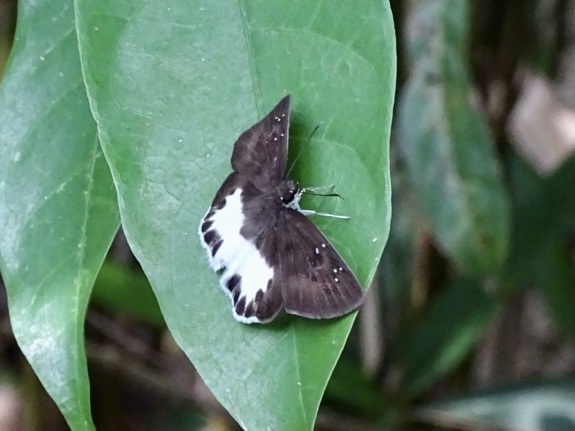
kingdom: Animalia
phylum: Arthropoda
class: Insecta
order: Lepidoptera
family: Hesperiidae
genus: Tagiades
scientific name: Tagiades litigiosa
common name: Water snow flat
